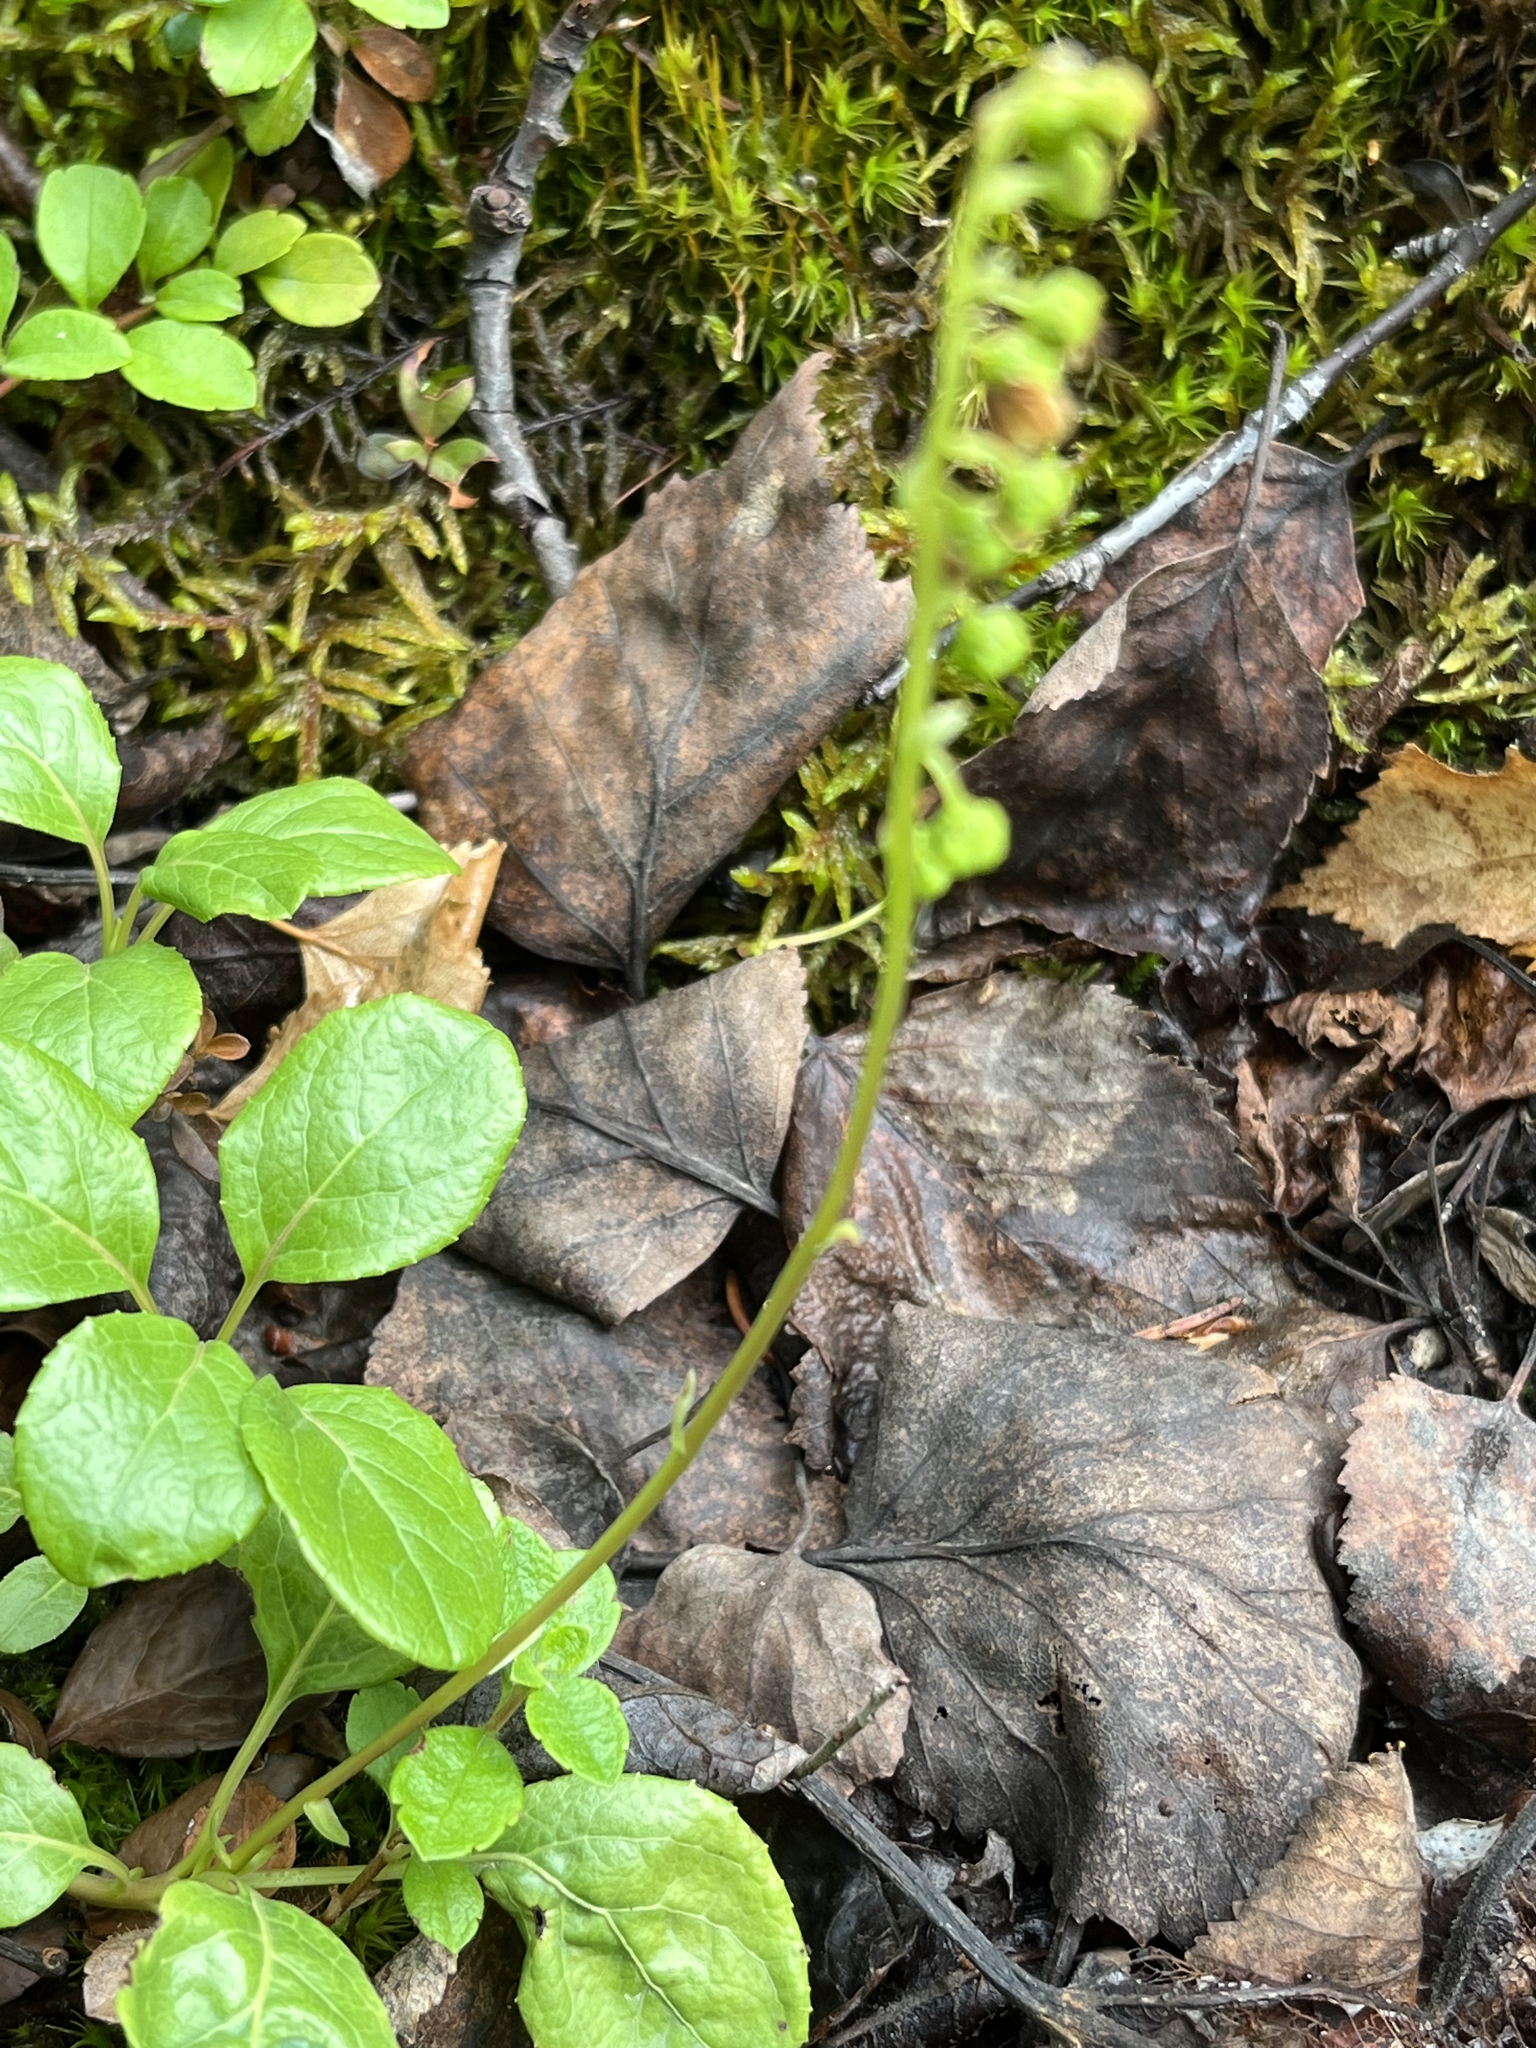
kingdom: Plantae
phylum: Tracheophyta
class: Magnoliopsida
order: Ericales
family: Ericaceae
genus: Orthilia
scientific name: Orthilia secunda
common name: One-sided orthilia
